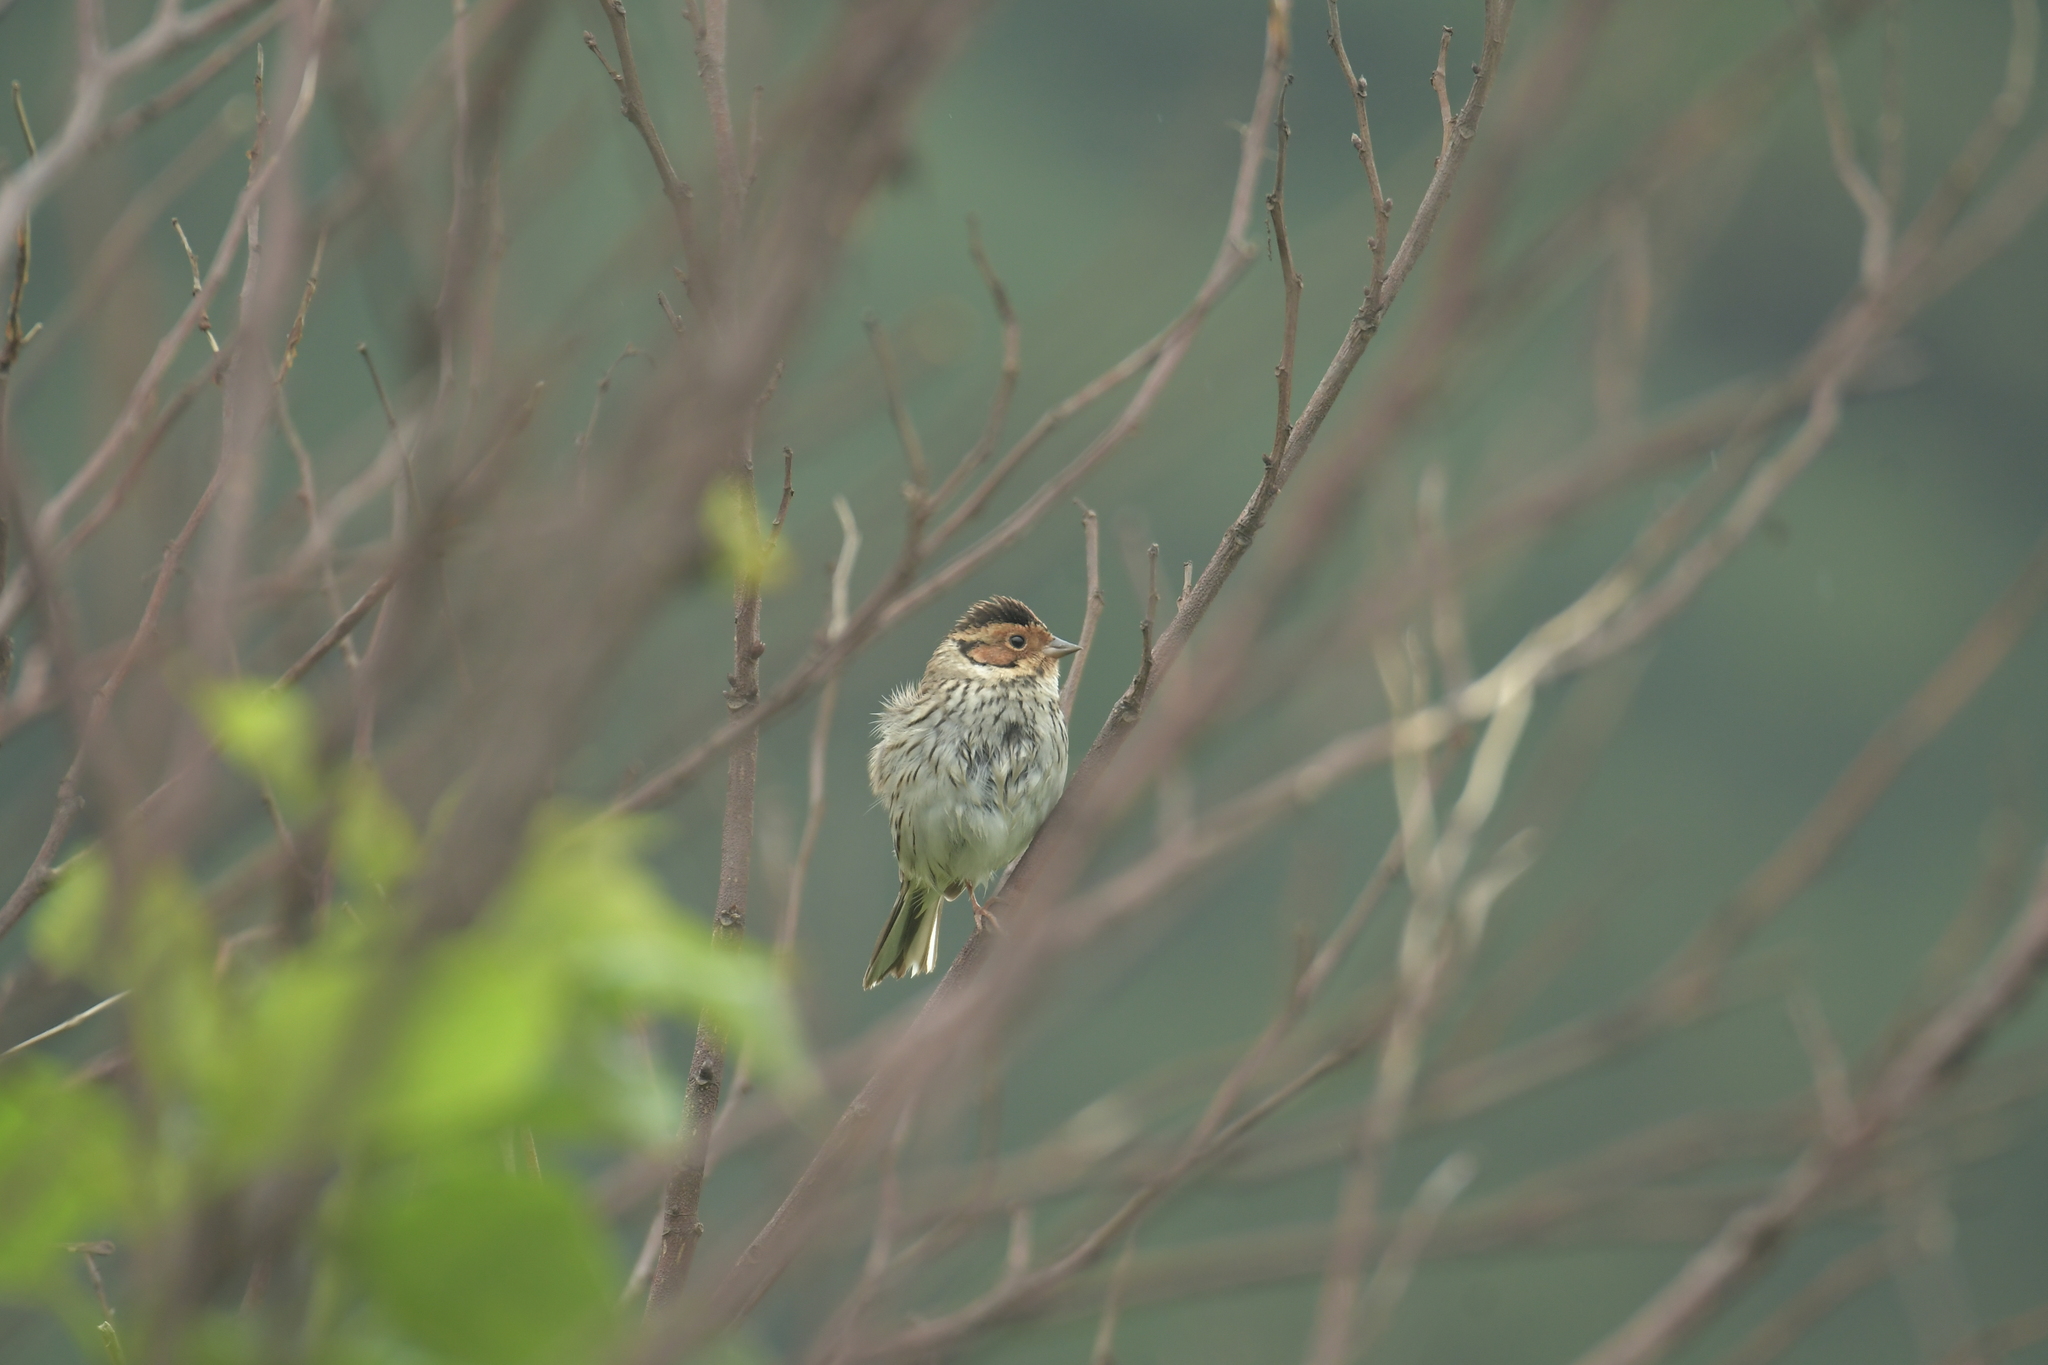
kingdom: Animalia
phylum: Chordata
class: Aves
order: Passeriformes
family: Emberizidae
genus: Emberiza
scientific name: Emberiza pusilla
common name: Little bunting
